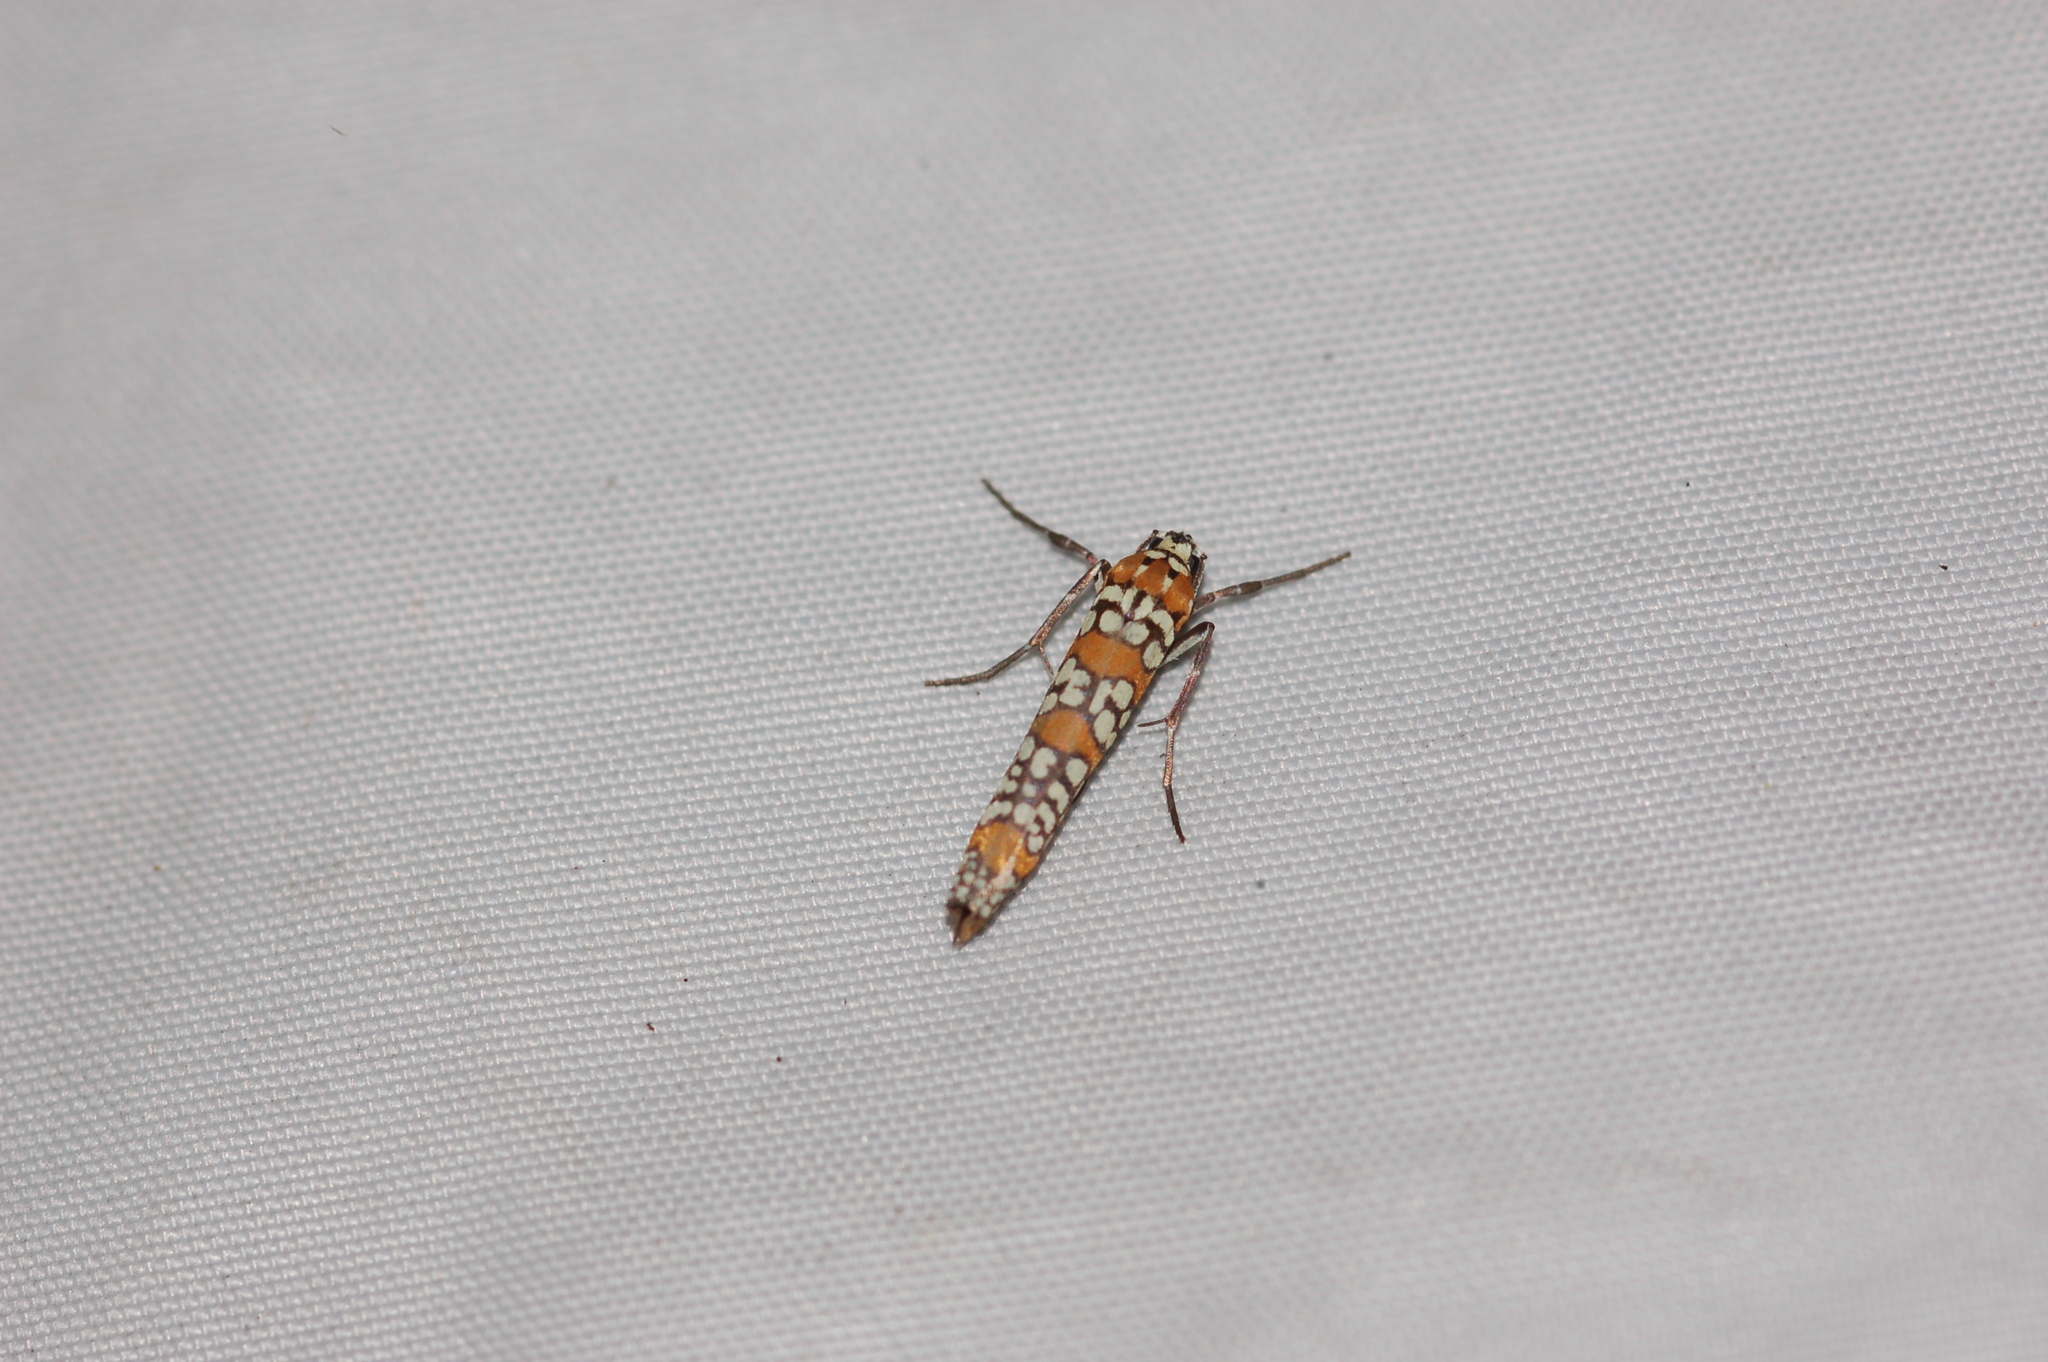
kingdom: Animalia
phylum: Arthropoda
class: Insecta
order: Lepidoptera
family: Attevidae
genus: Atteva
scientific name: Atteva punctella
